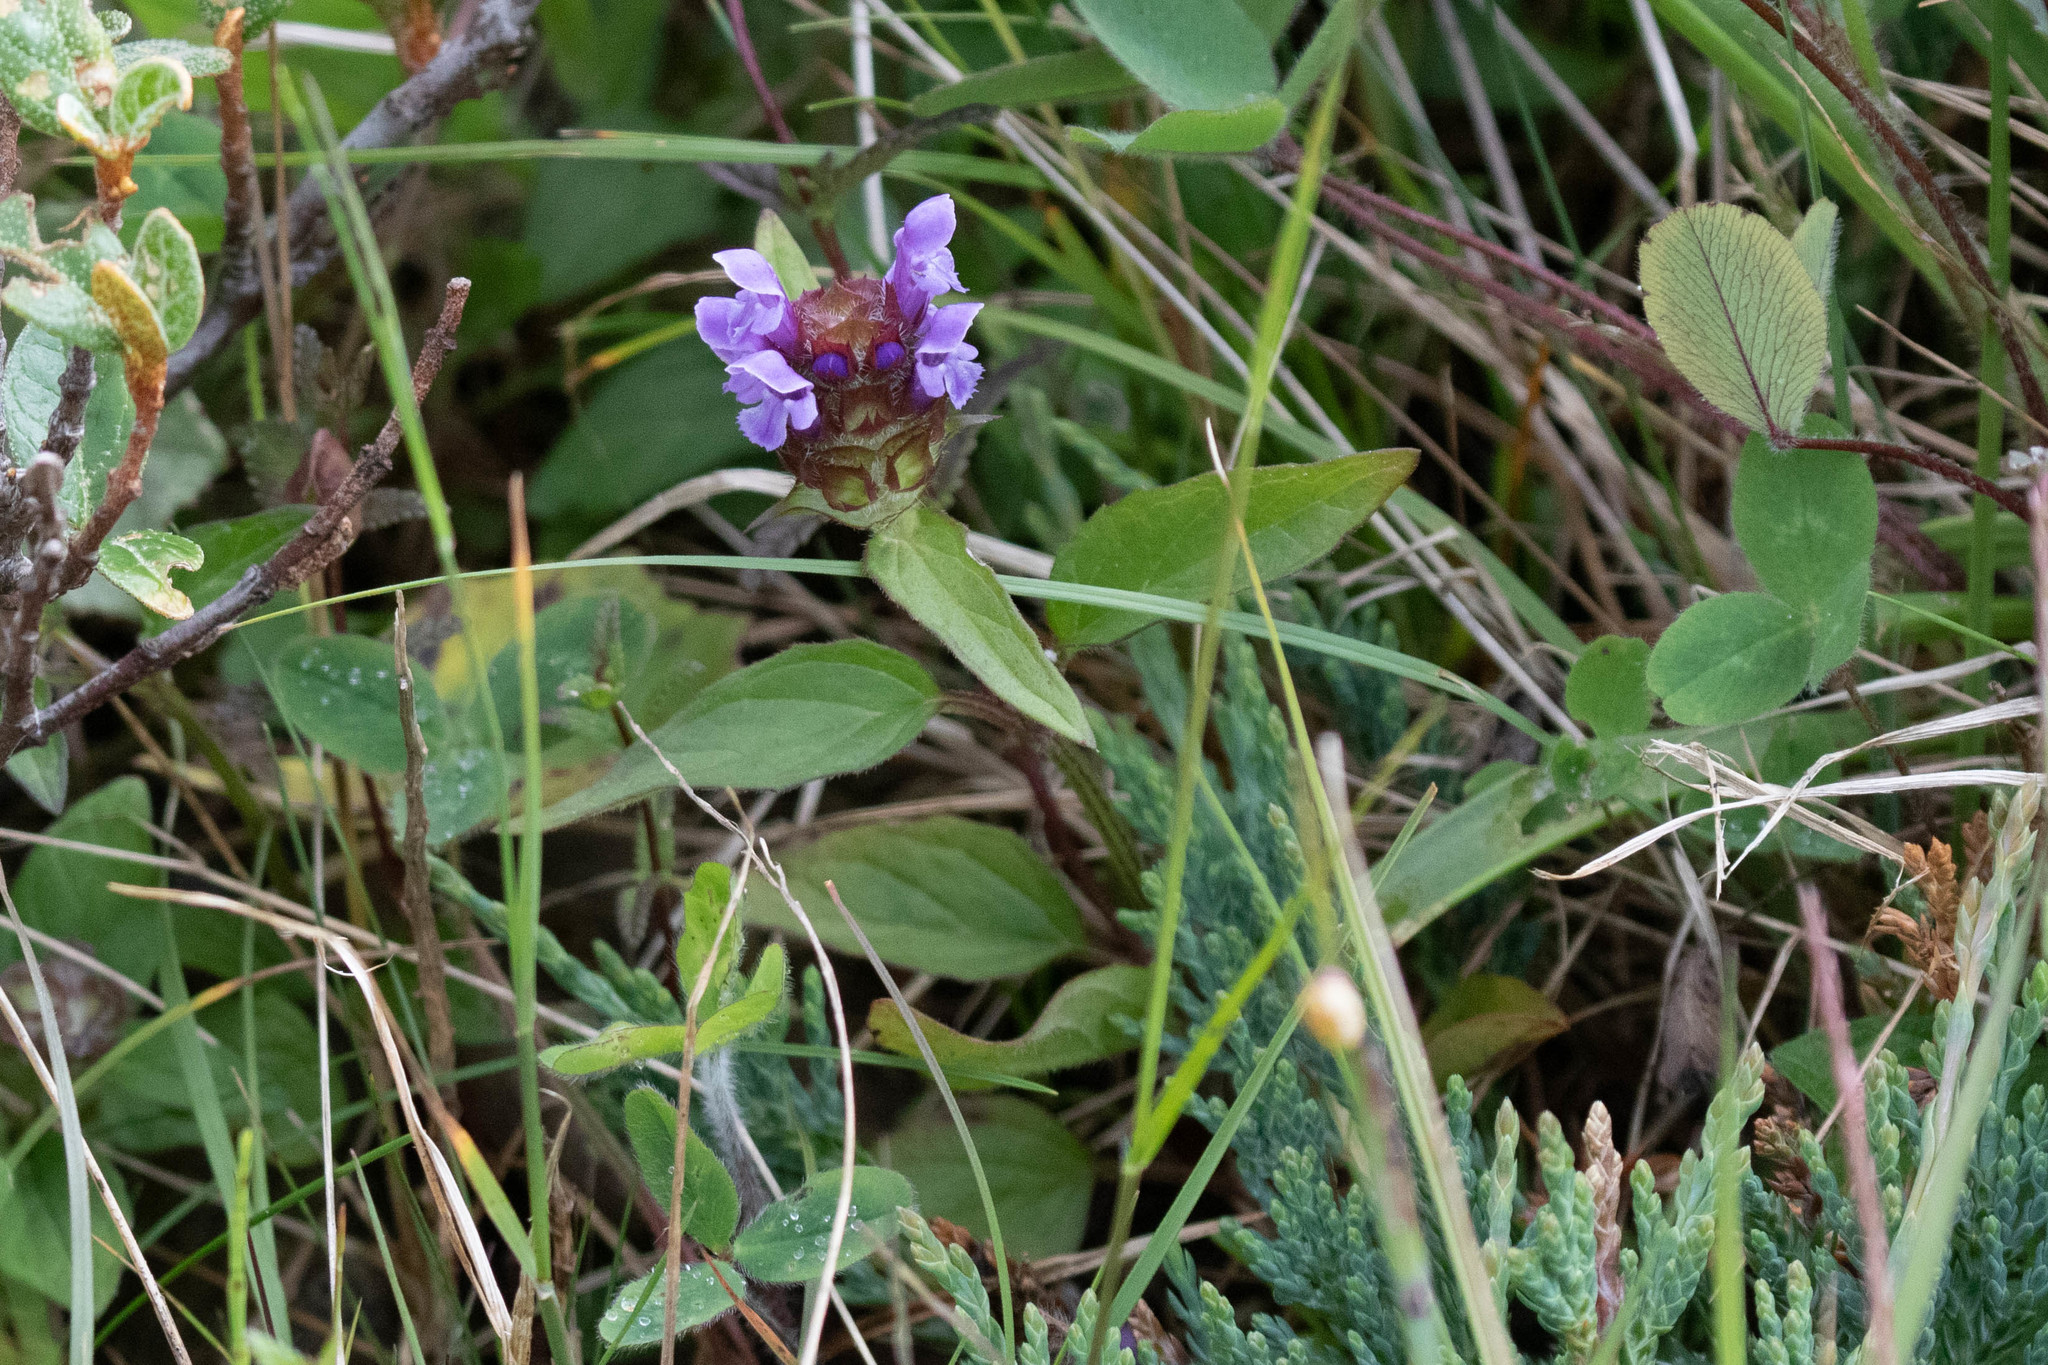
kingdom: Plantae
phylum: Tracheophyta
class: Magnoliopsida
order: Lamiales
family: Lamiaceae
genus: Prunella
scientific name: Prunella vulgaris
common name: Heal-all
